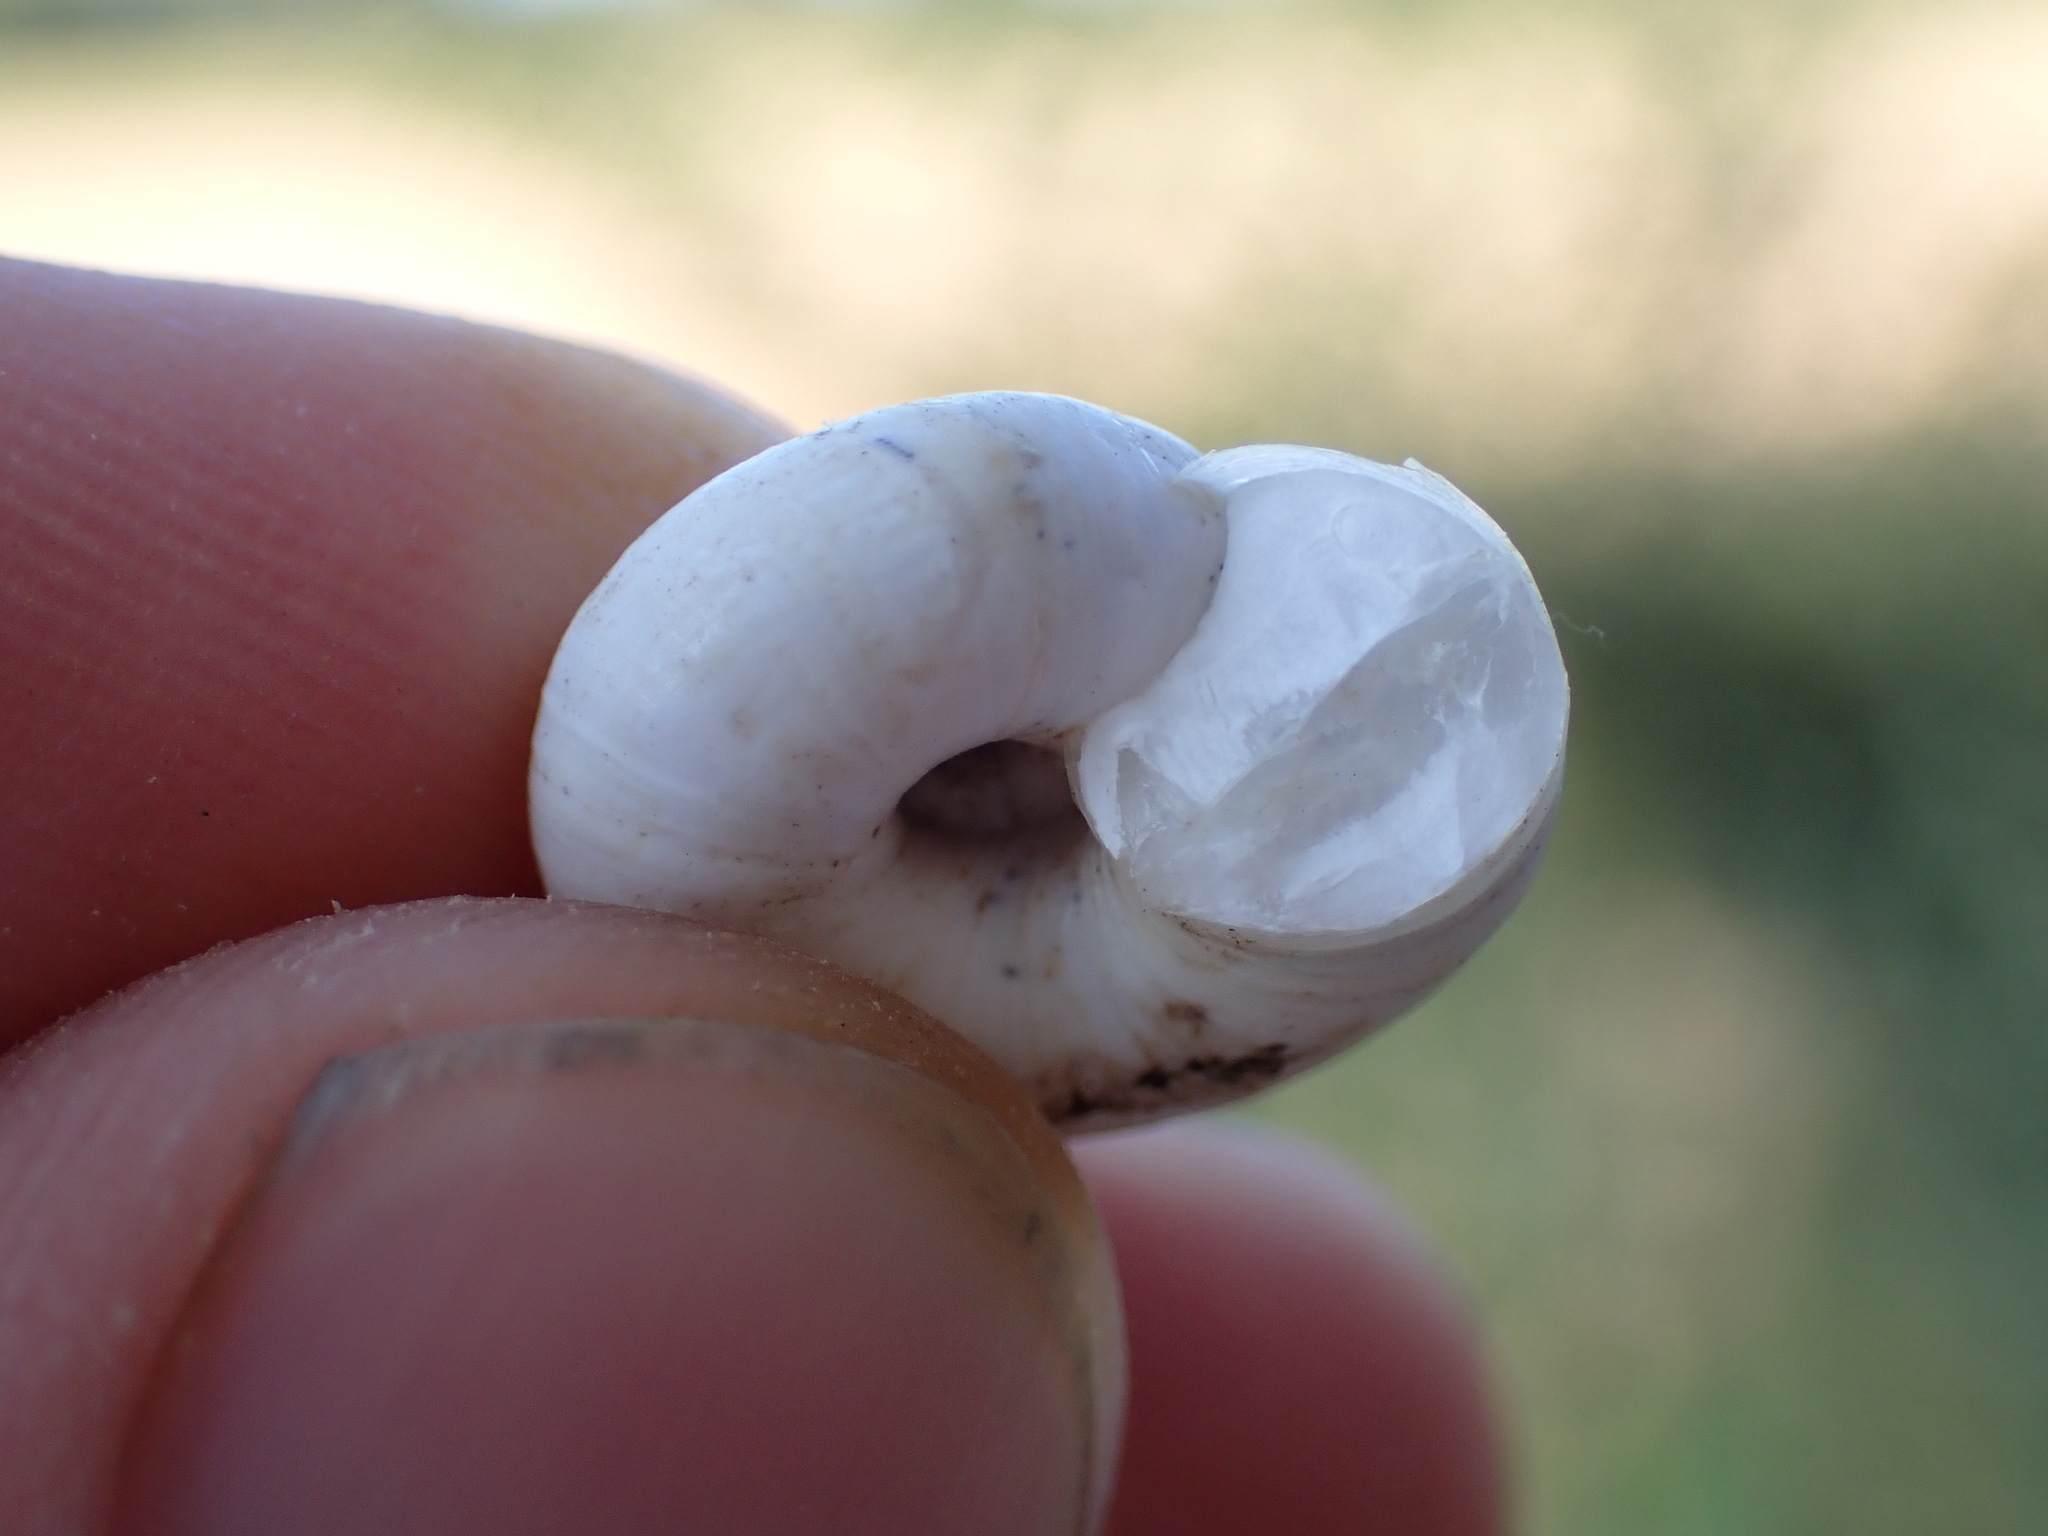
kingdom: Animalia
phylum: Mollusca
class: Gastropoda
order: Stylommatophora
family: Geomitridae
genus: Xeropicta
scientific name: Xeropicta derbentina
